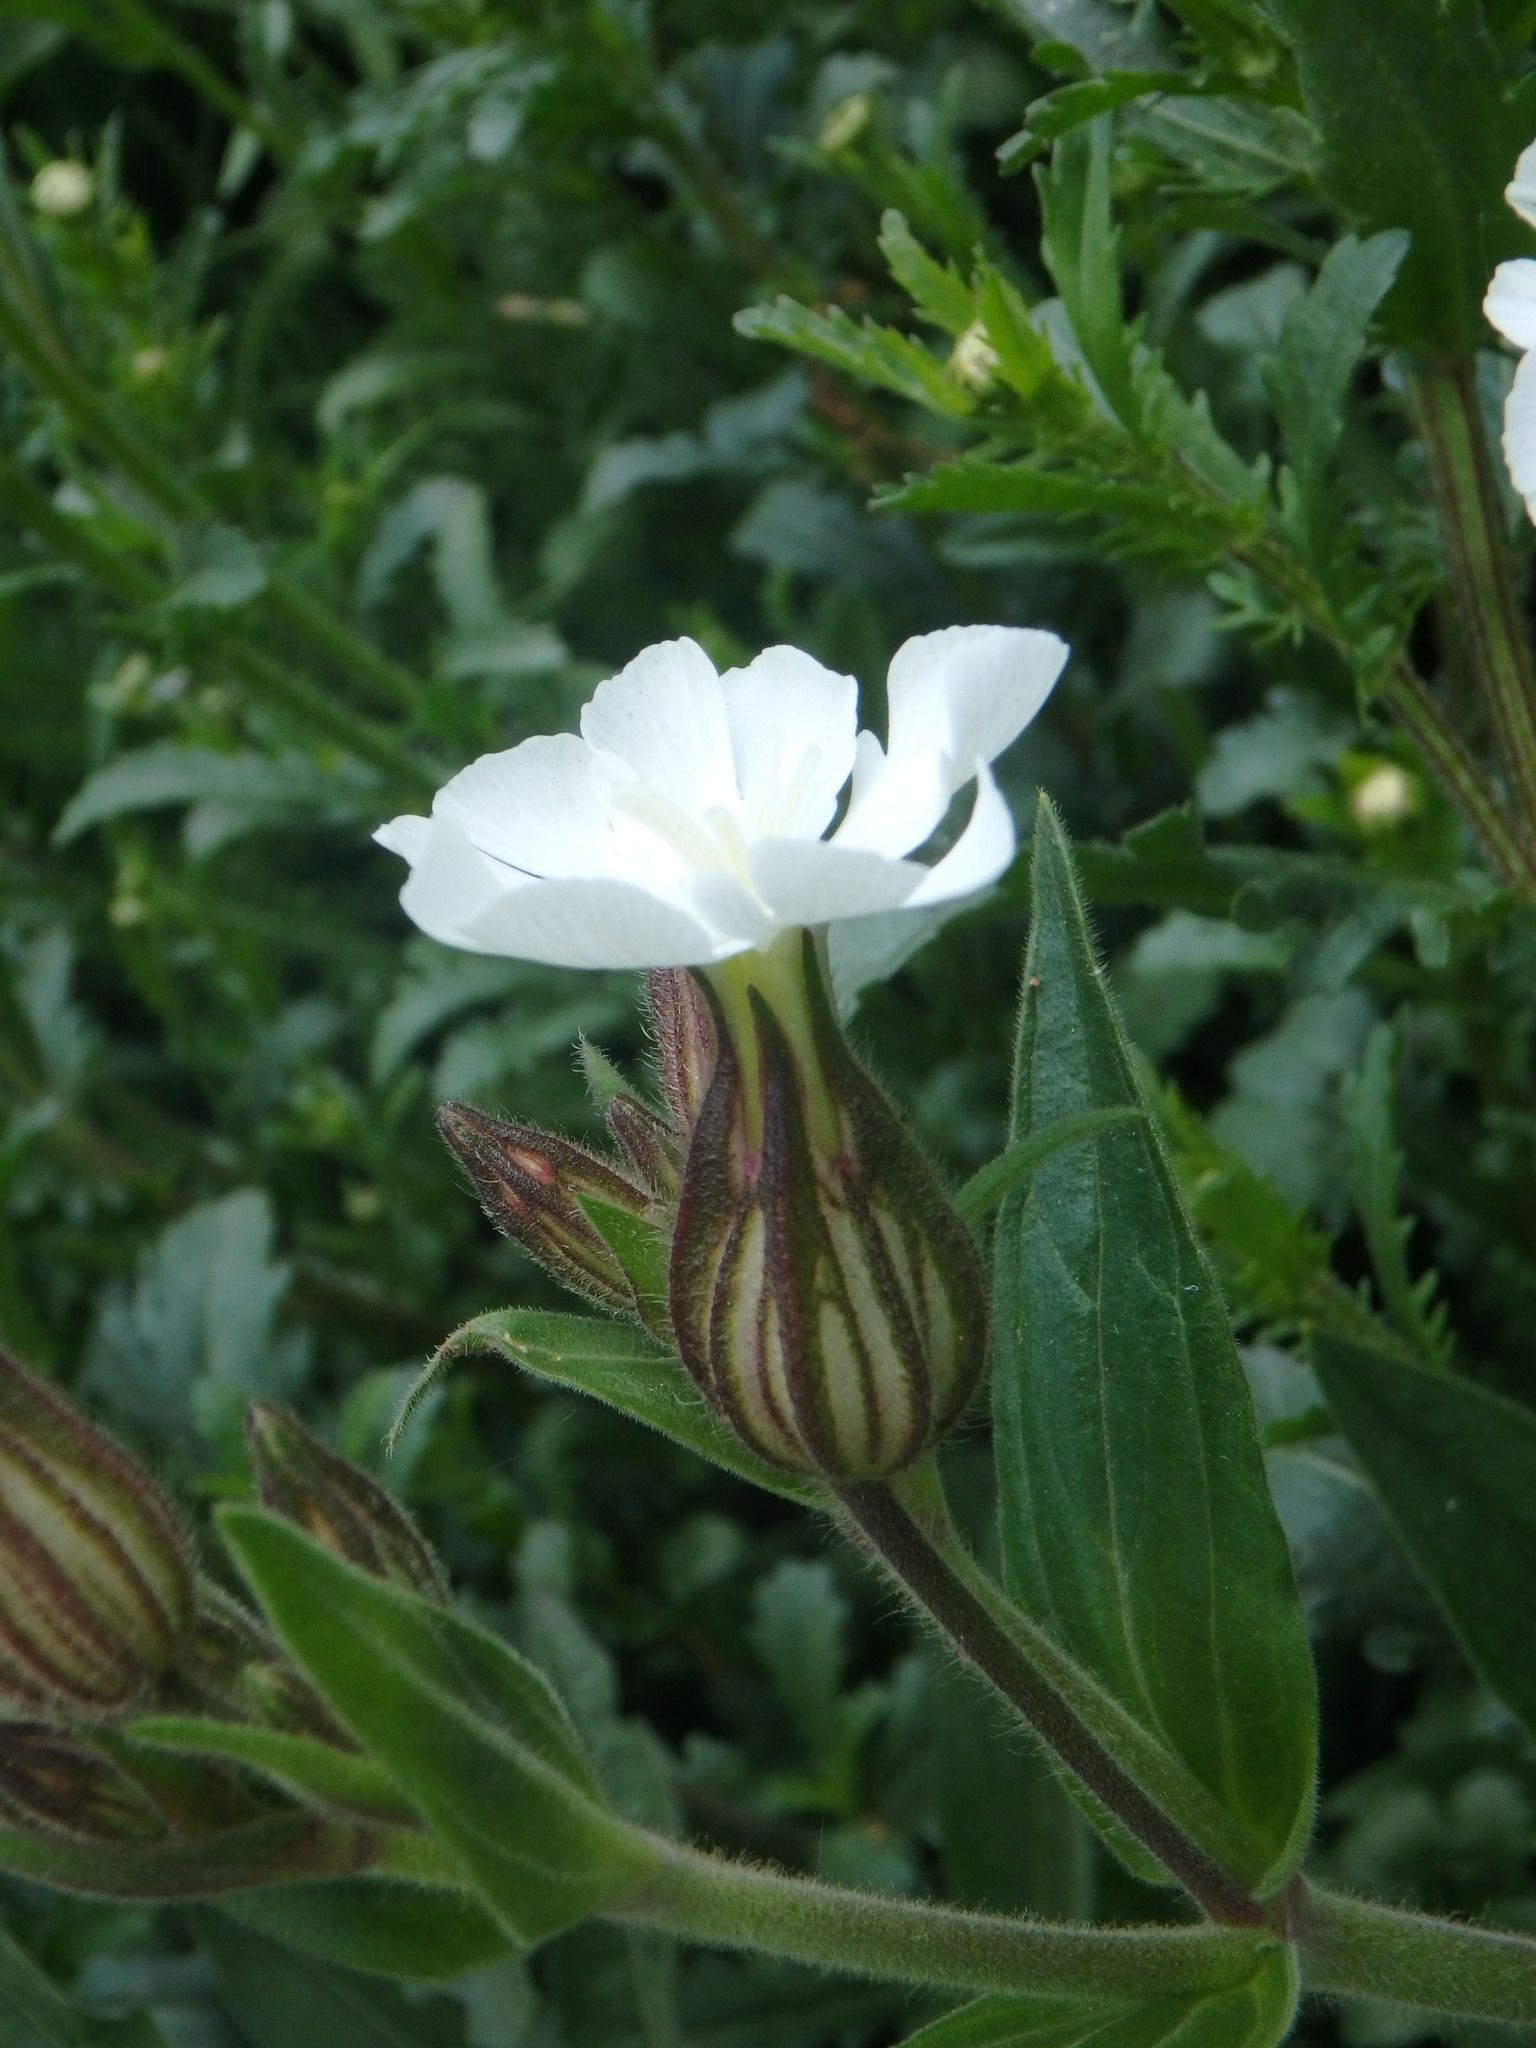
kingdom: Plantae
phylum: Tracheophyta
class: Magnoliopsida
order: Caryophyllales
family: Caryophyllaceae
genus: Silene
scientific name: Silene latifolia
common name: White campion
